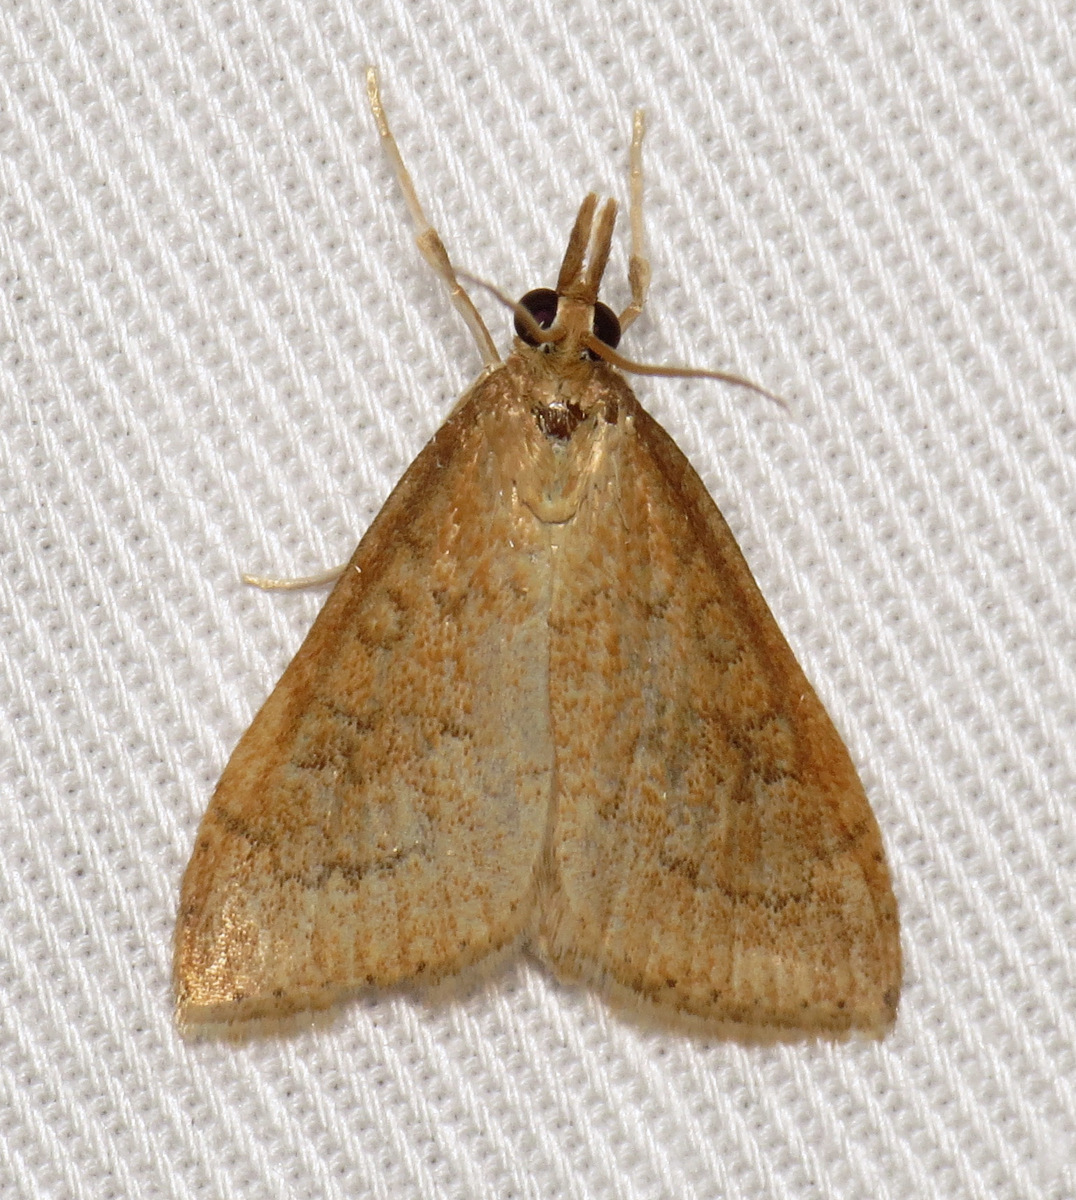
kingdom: Animalia
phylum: Arthropoda
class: Insecta
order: Lepidoptera
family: Crambidae
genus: Udea
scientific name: Udea rubigalis
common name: Celery leaftier moth
